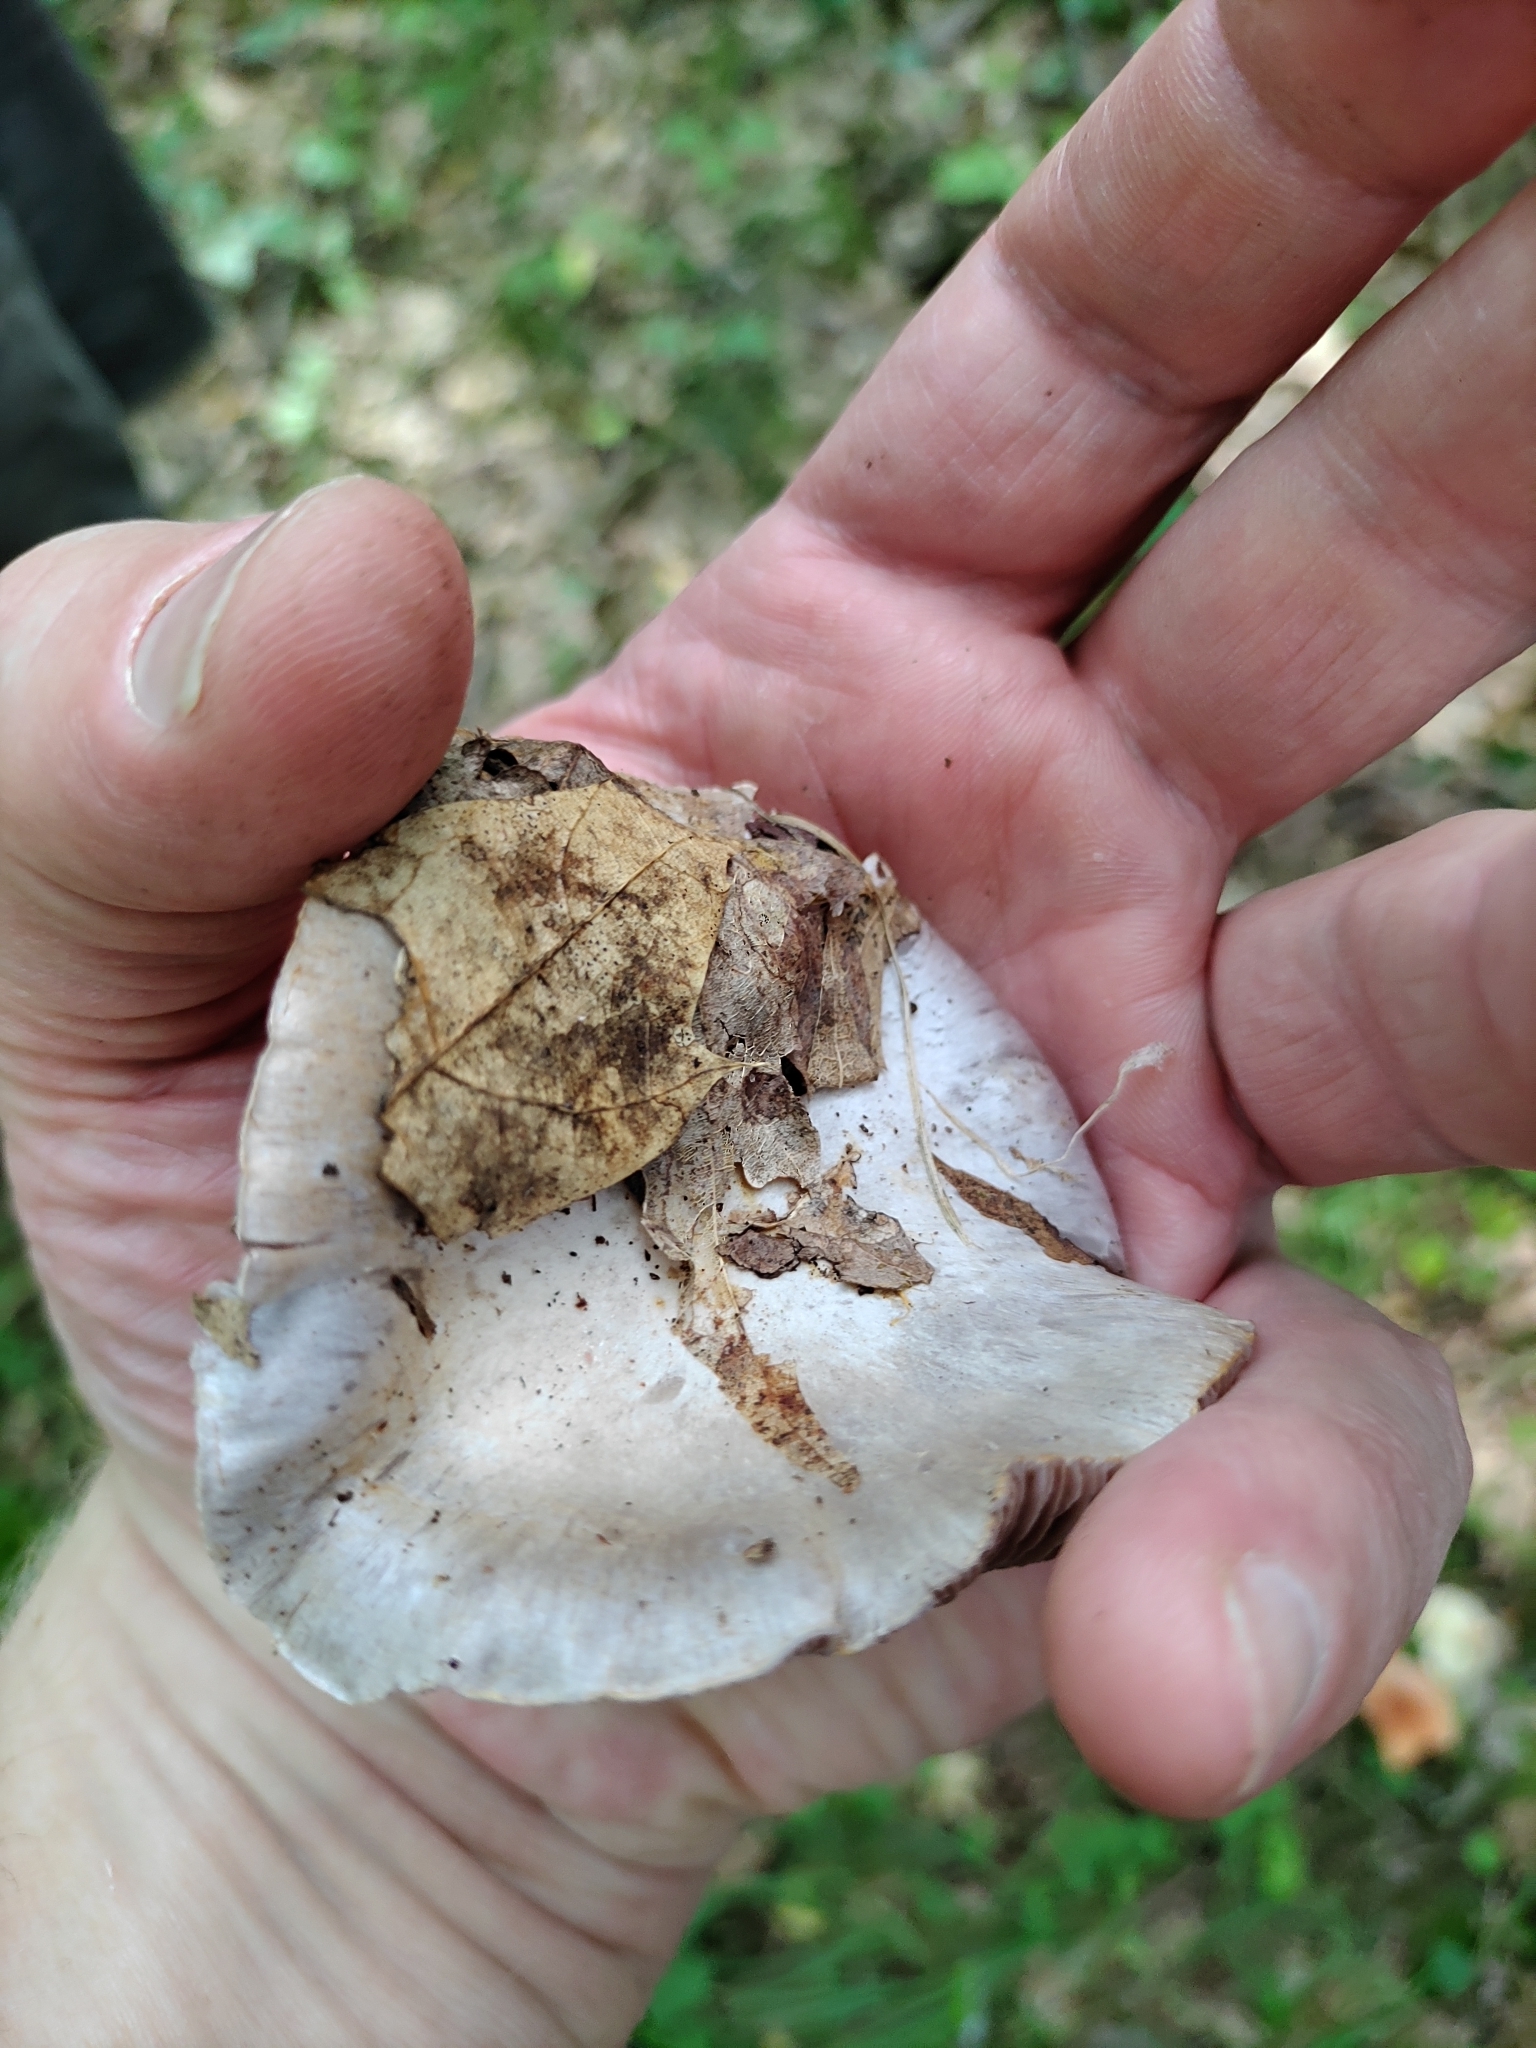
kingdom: Fungi
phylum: Basidiomycota
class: Agaricomycetes
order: Agaricales
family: Cortinariaceae
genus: Cortinarius
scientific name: Cortinarius obliquus
